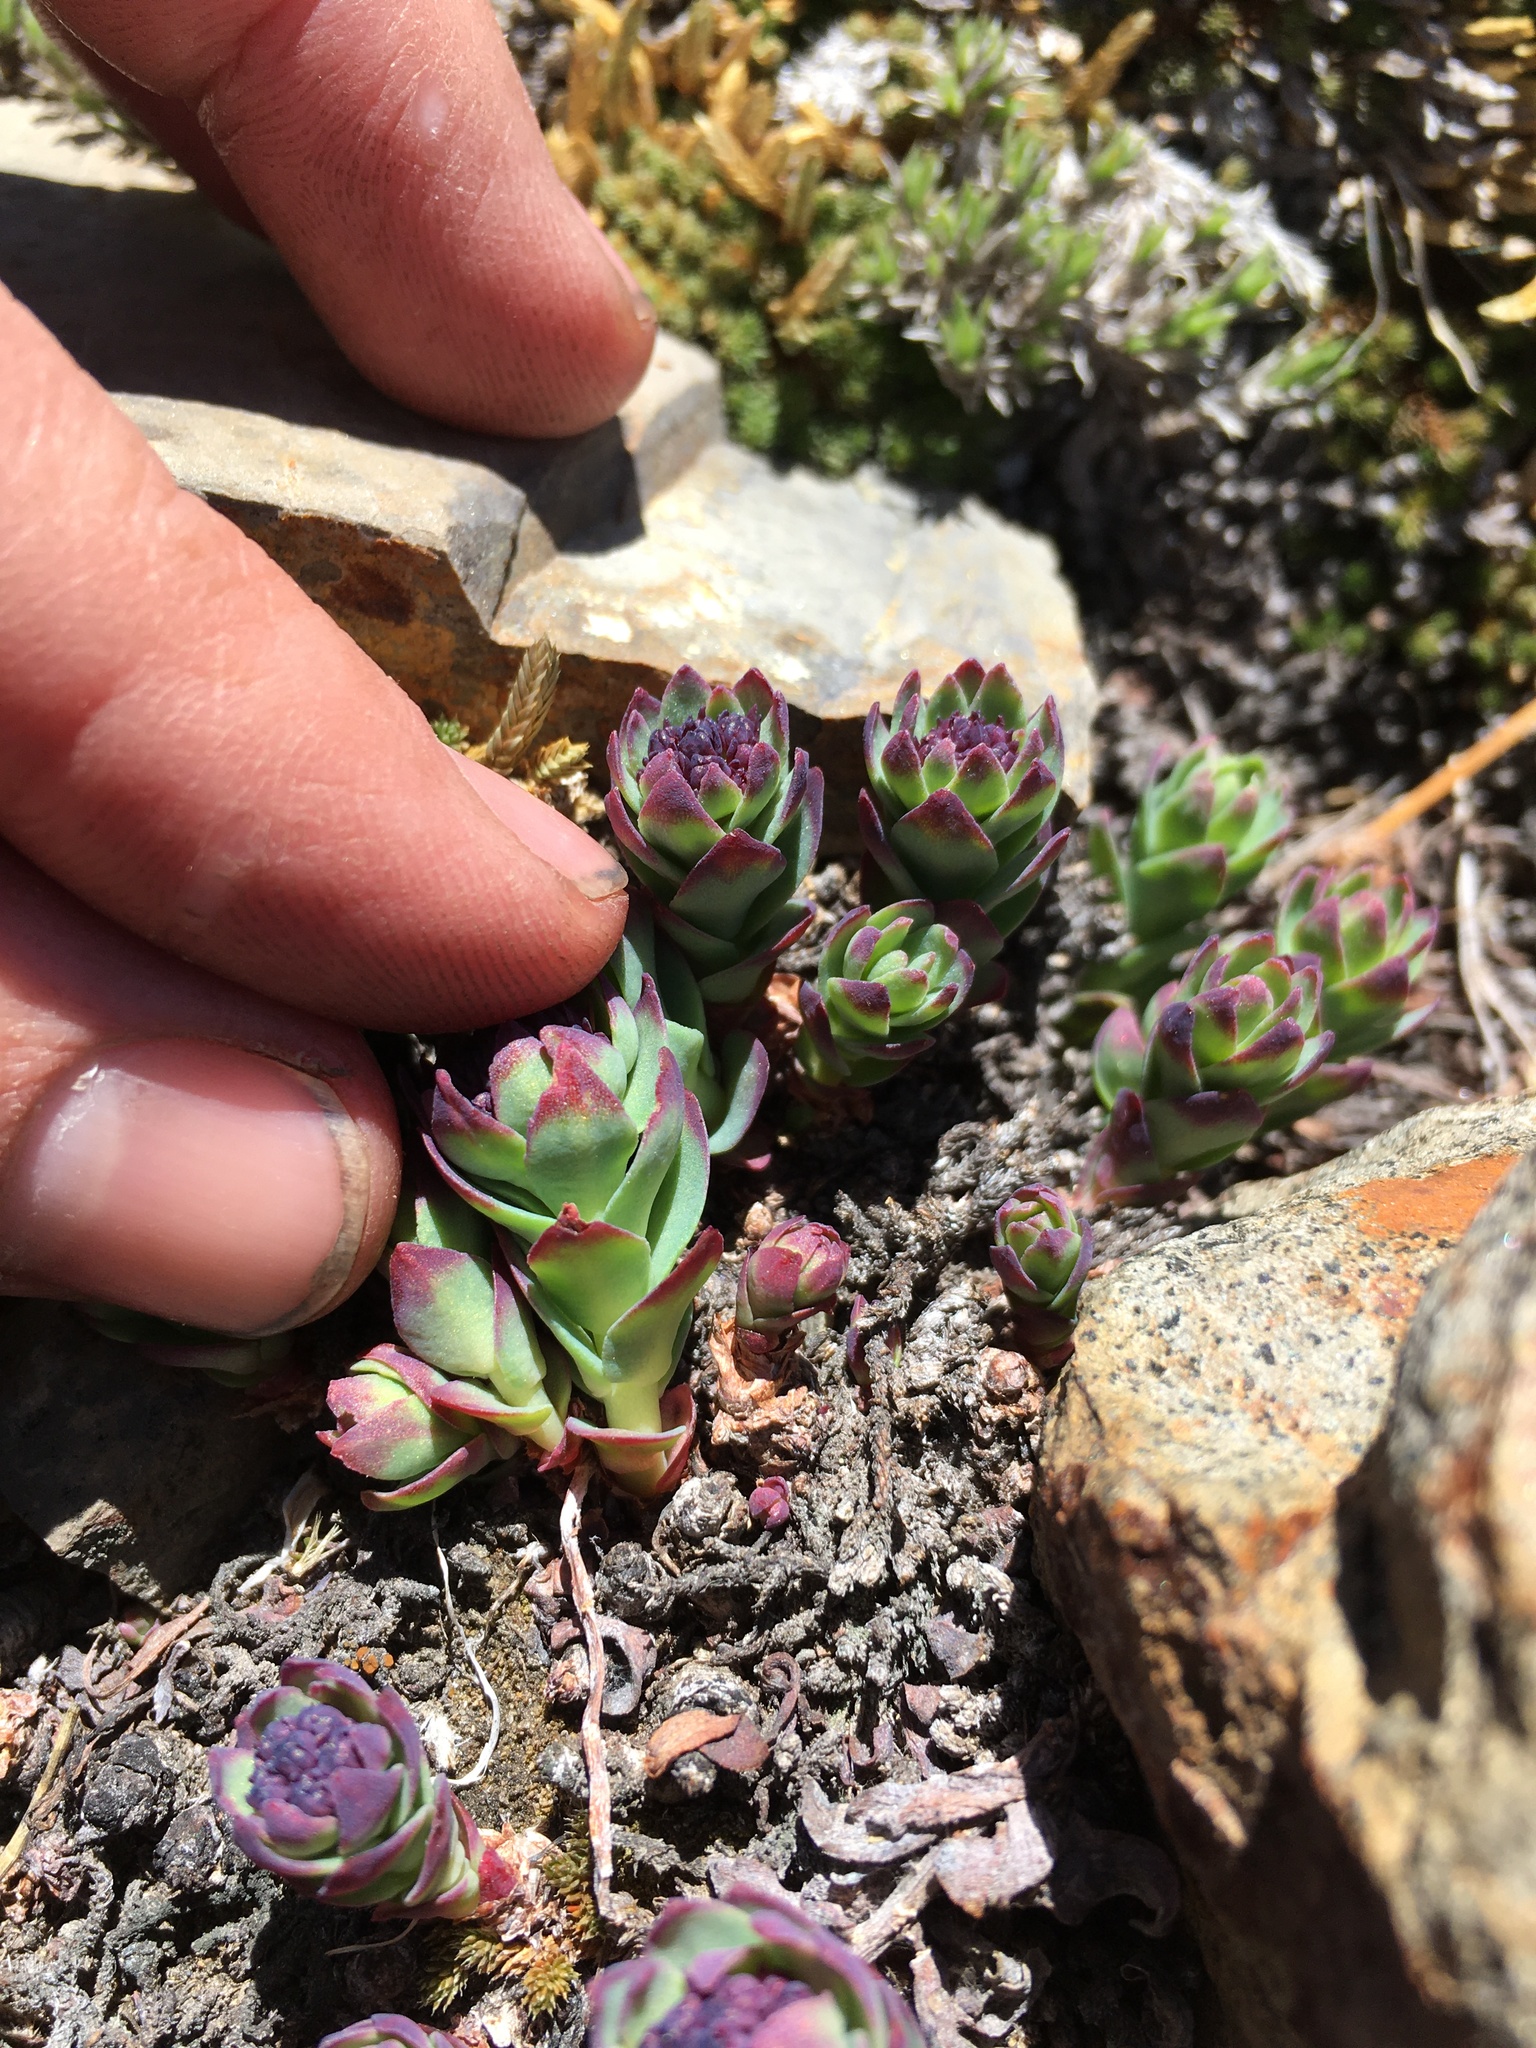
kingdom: Plantae
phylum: Tracheophyta
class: Magnoliopsida
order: Saxifragales
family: Crassulaceae
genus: Rhodiola
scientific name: Rhodiola integrifolia
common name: Western roseroot
